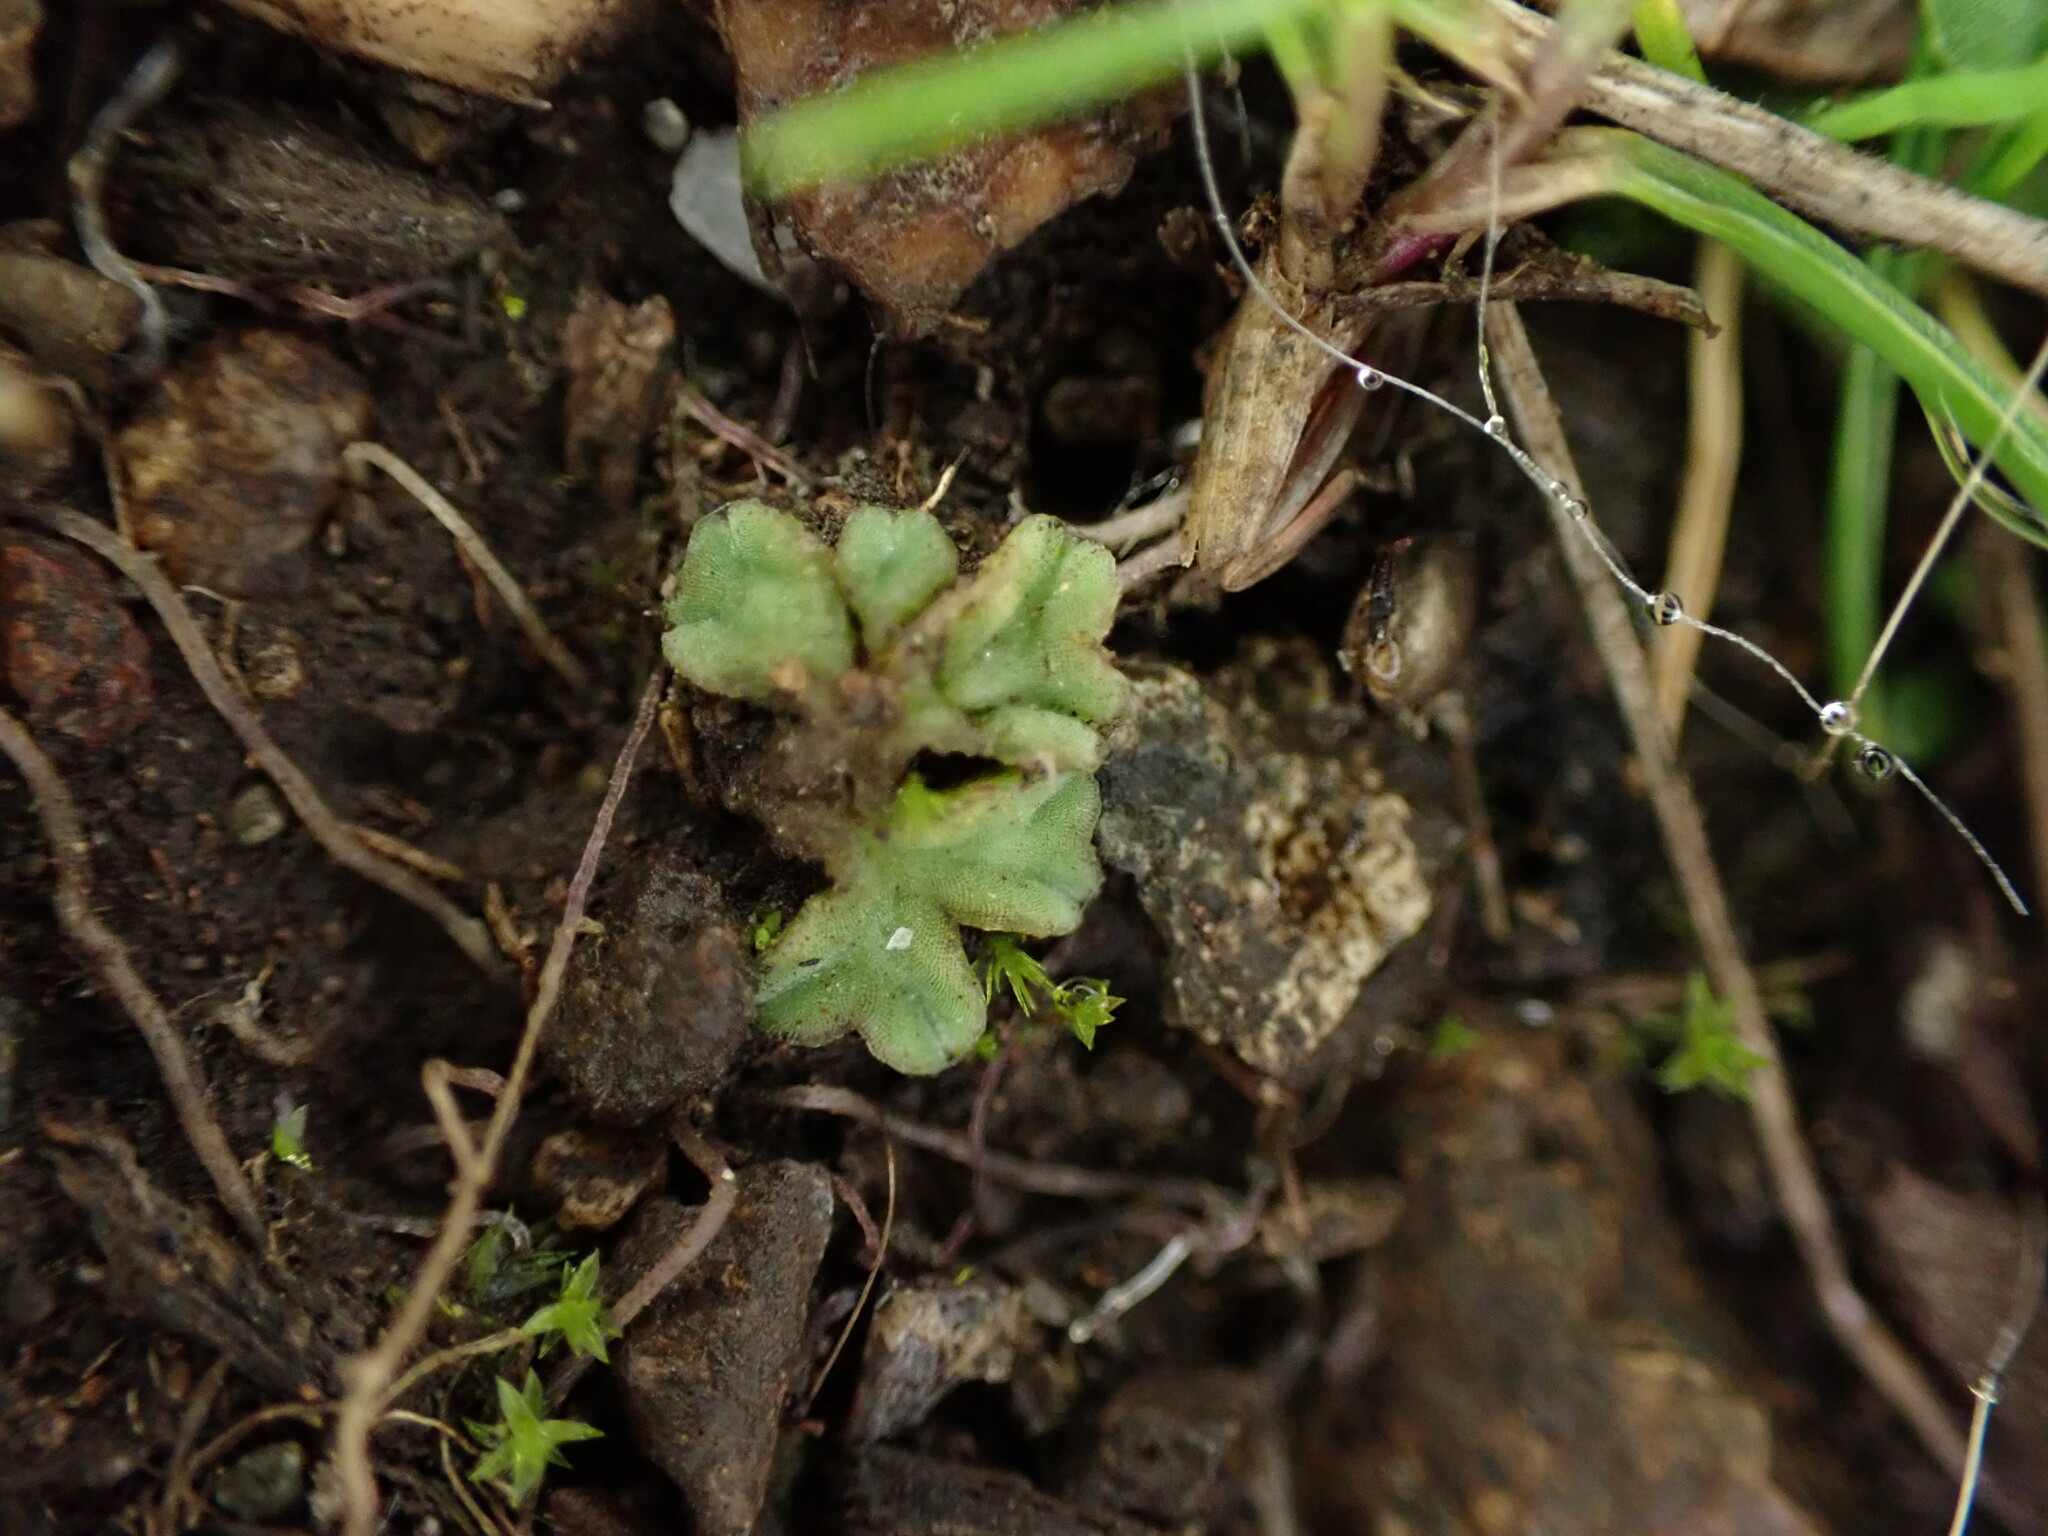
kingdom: Plantae
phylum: Marchantiophyta
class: Marchantiopsida
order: Marchantiales
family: Ricciaceae
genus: Riccia
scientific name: Riccia sorocarpa
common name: Common crystalwort
